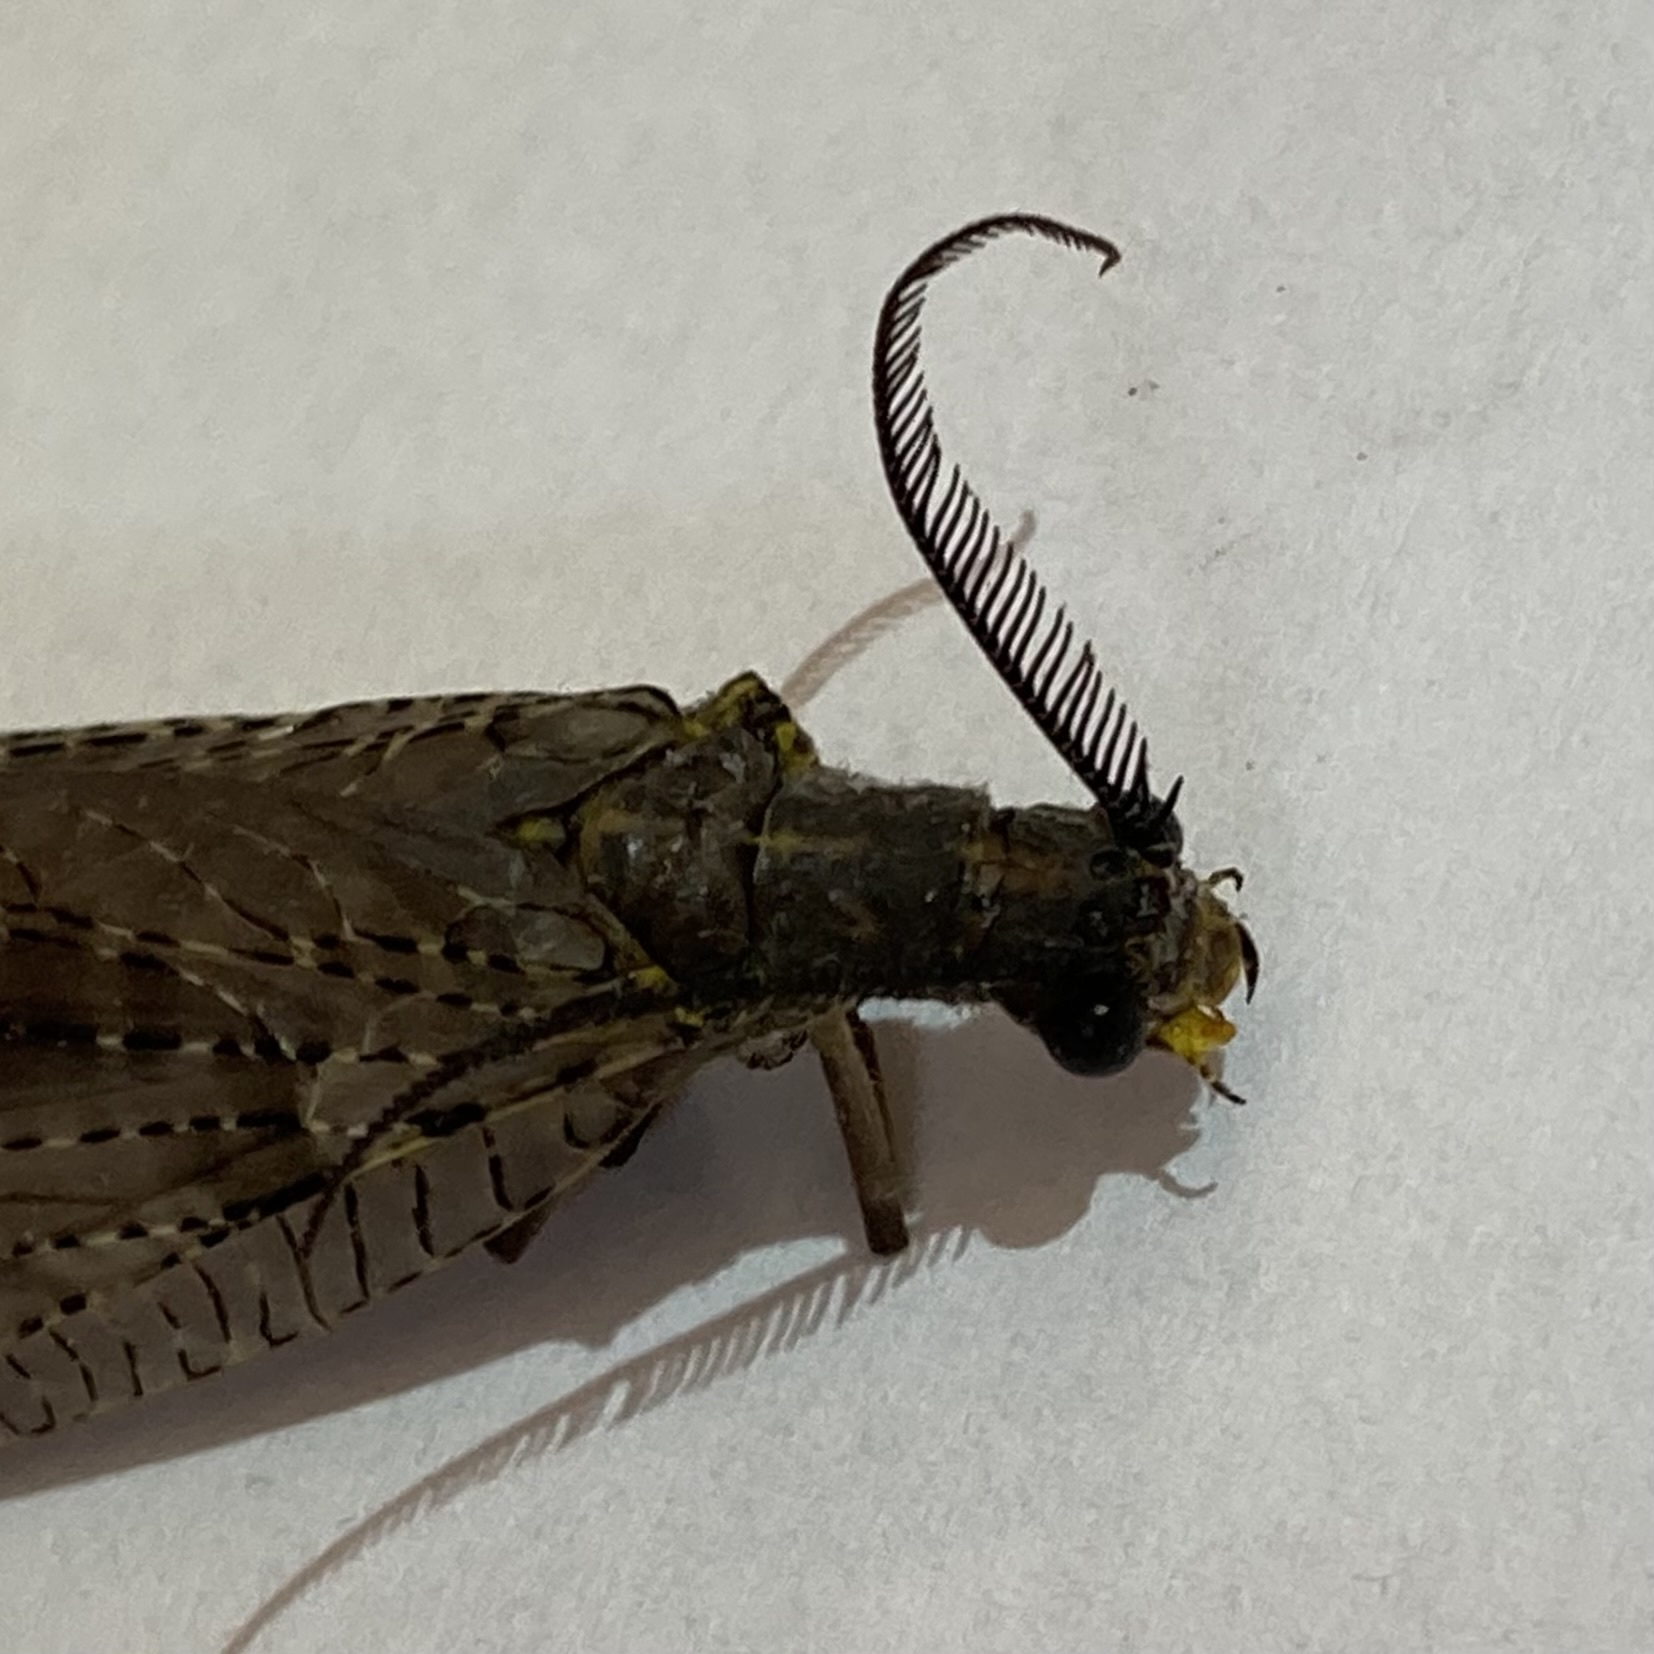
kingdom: Animalia
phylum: Arthropoda
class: Insecta
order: Megaloptera
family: Corydalidae
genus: Chauliodes
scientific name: Chauliodes pectinicornis
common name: Summer fishfly
